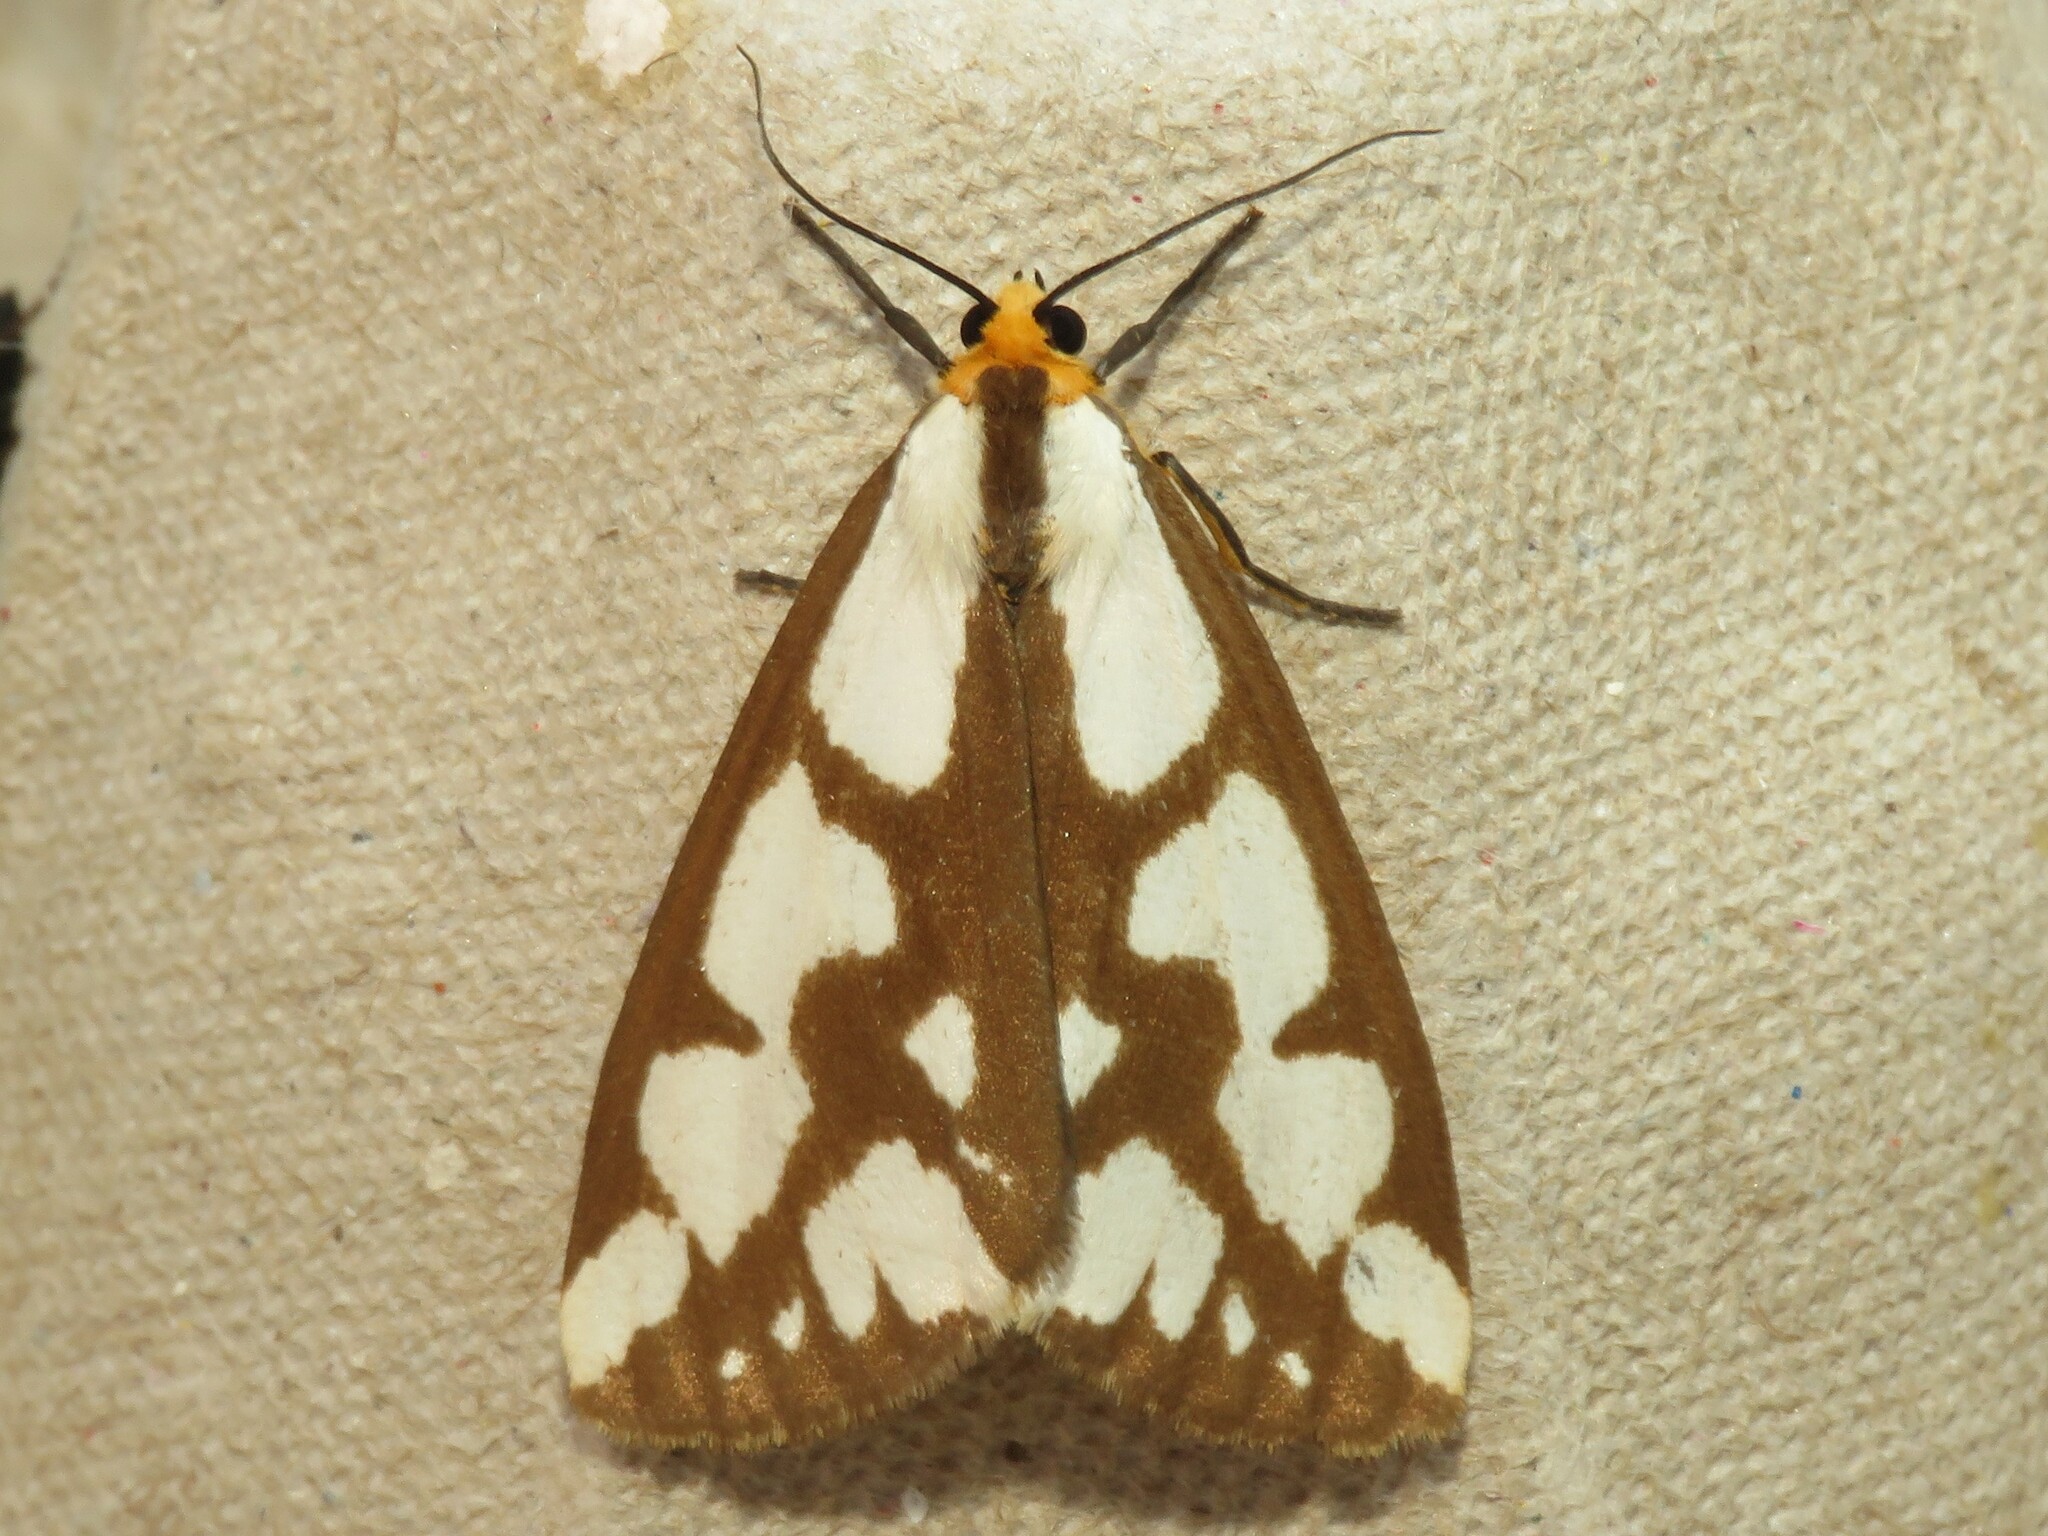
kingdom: Animalia
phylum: Arthropoda
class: Insecta
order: Lepidoptera
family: Erebidae
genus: Haploa
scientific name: Haploa confusa
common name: Confused haploa moth
